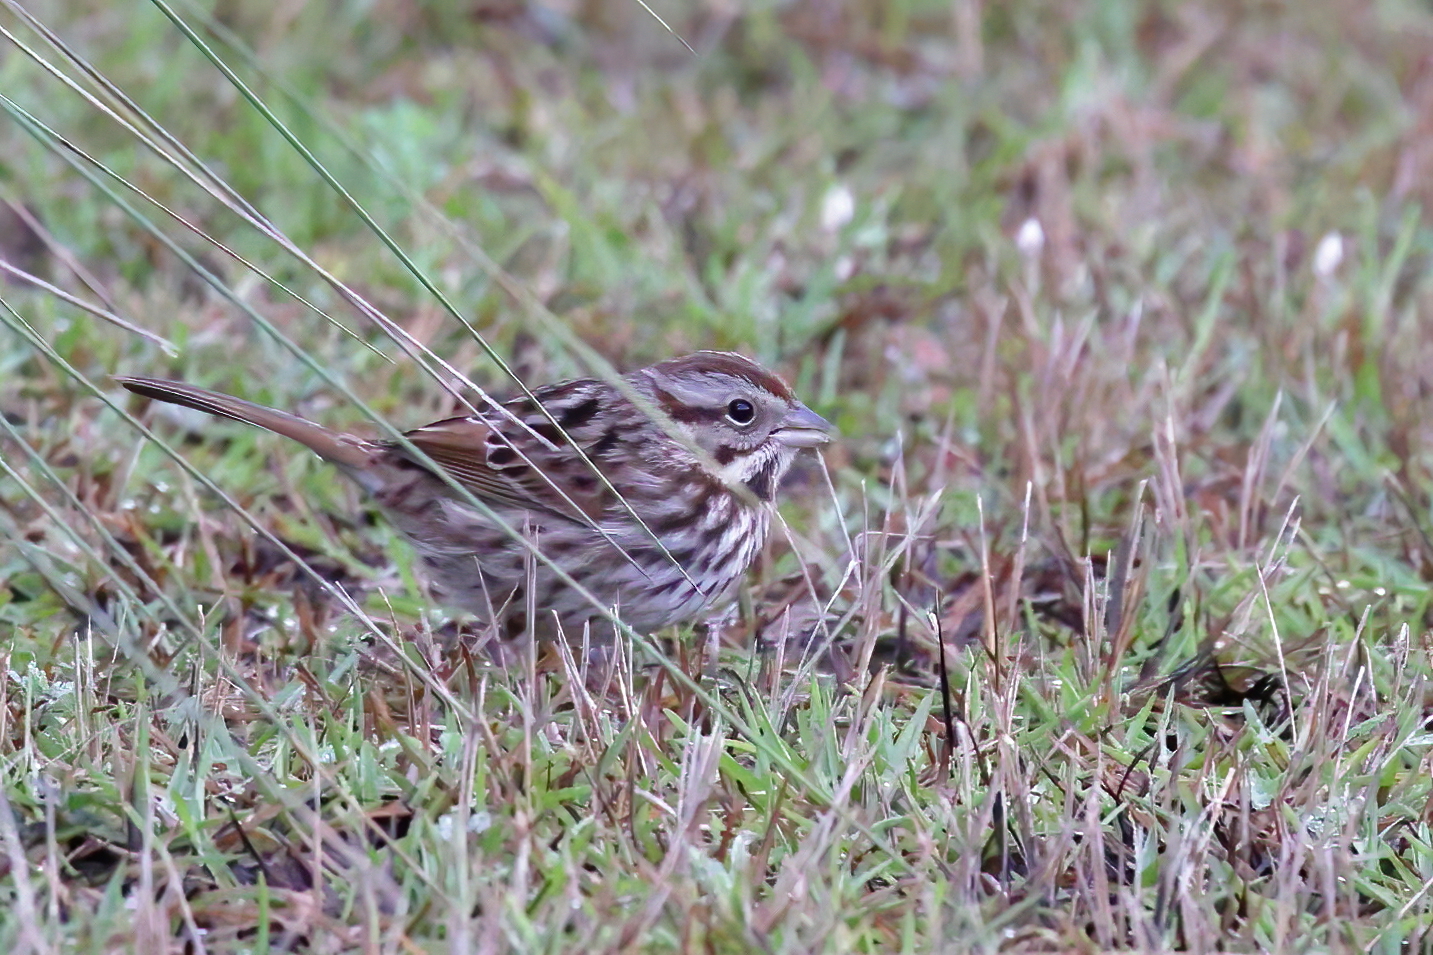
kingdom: Animalia
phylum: Chordata
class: Aves
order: Passeriformes
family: Passerellidae
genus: Melospiza
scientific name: Melospiza melodia
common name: Song sparrow
